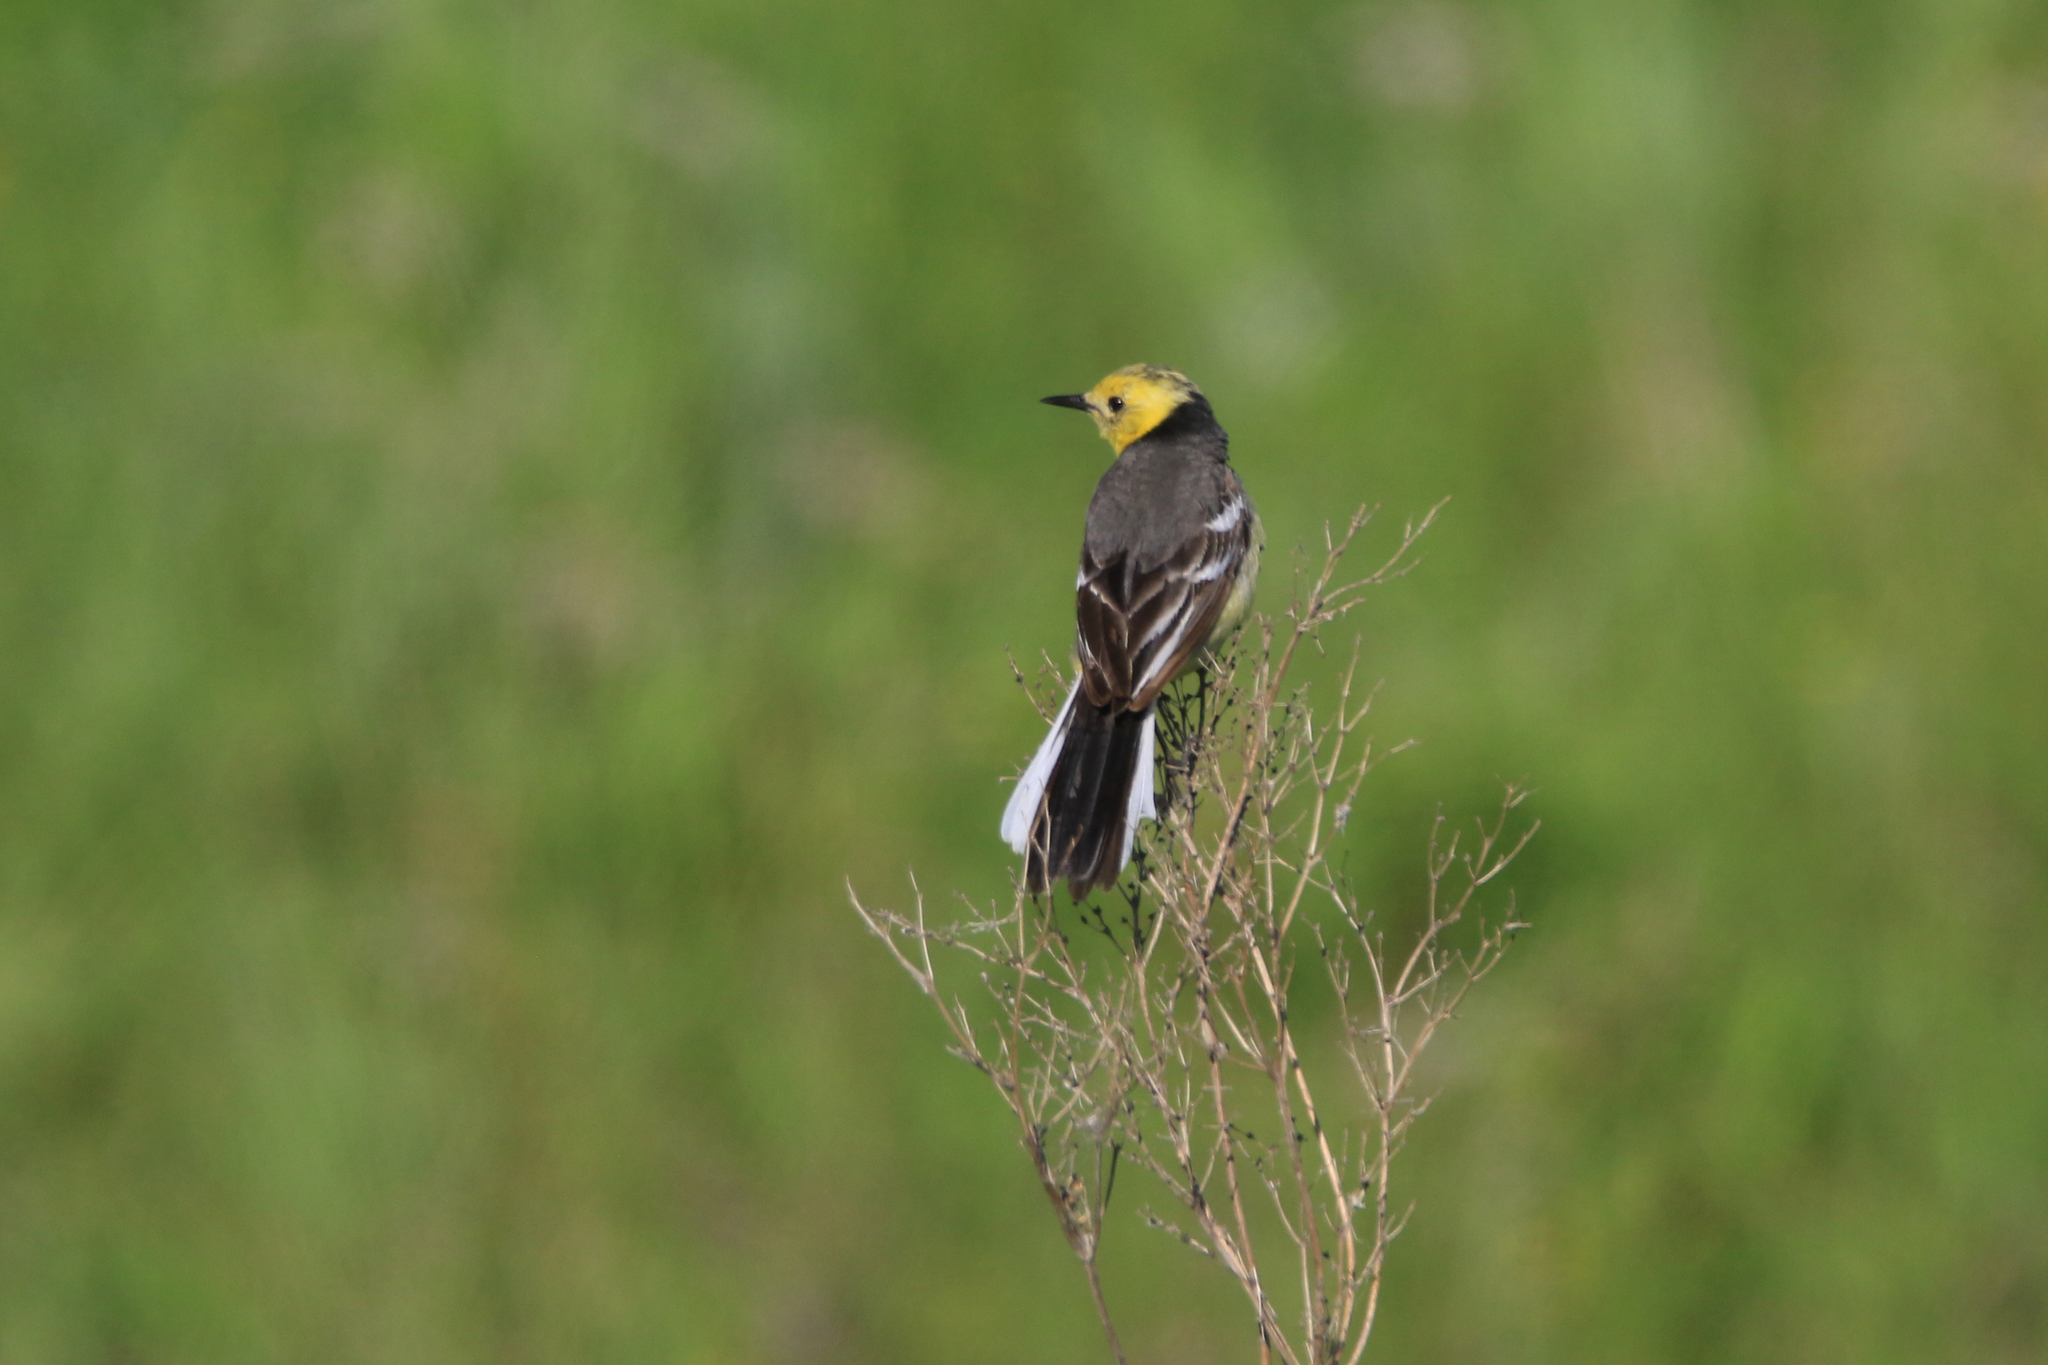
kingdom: Animalia
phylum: Chordata
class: Aves
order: Passeriformes
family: Motacillidae
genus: Motacilla
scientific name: Motacilla citreola
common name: Citrine wagtail
